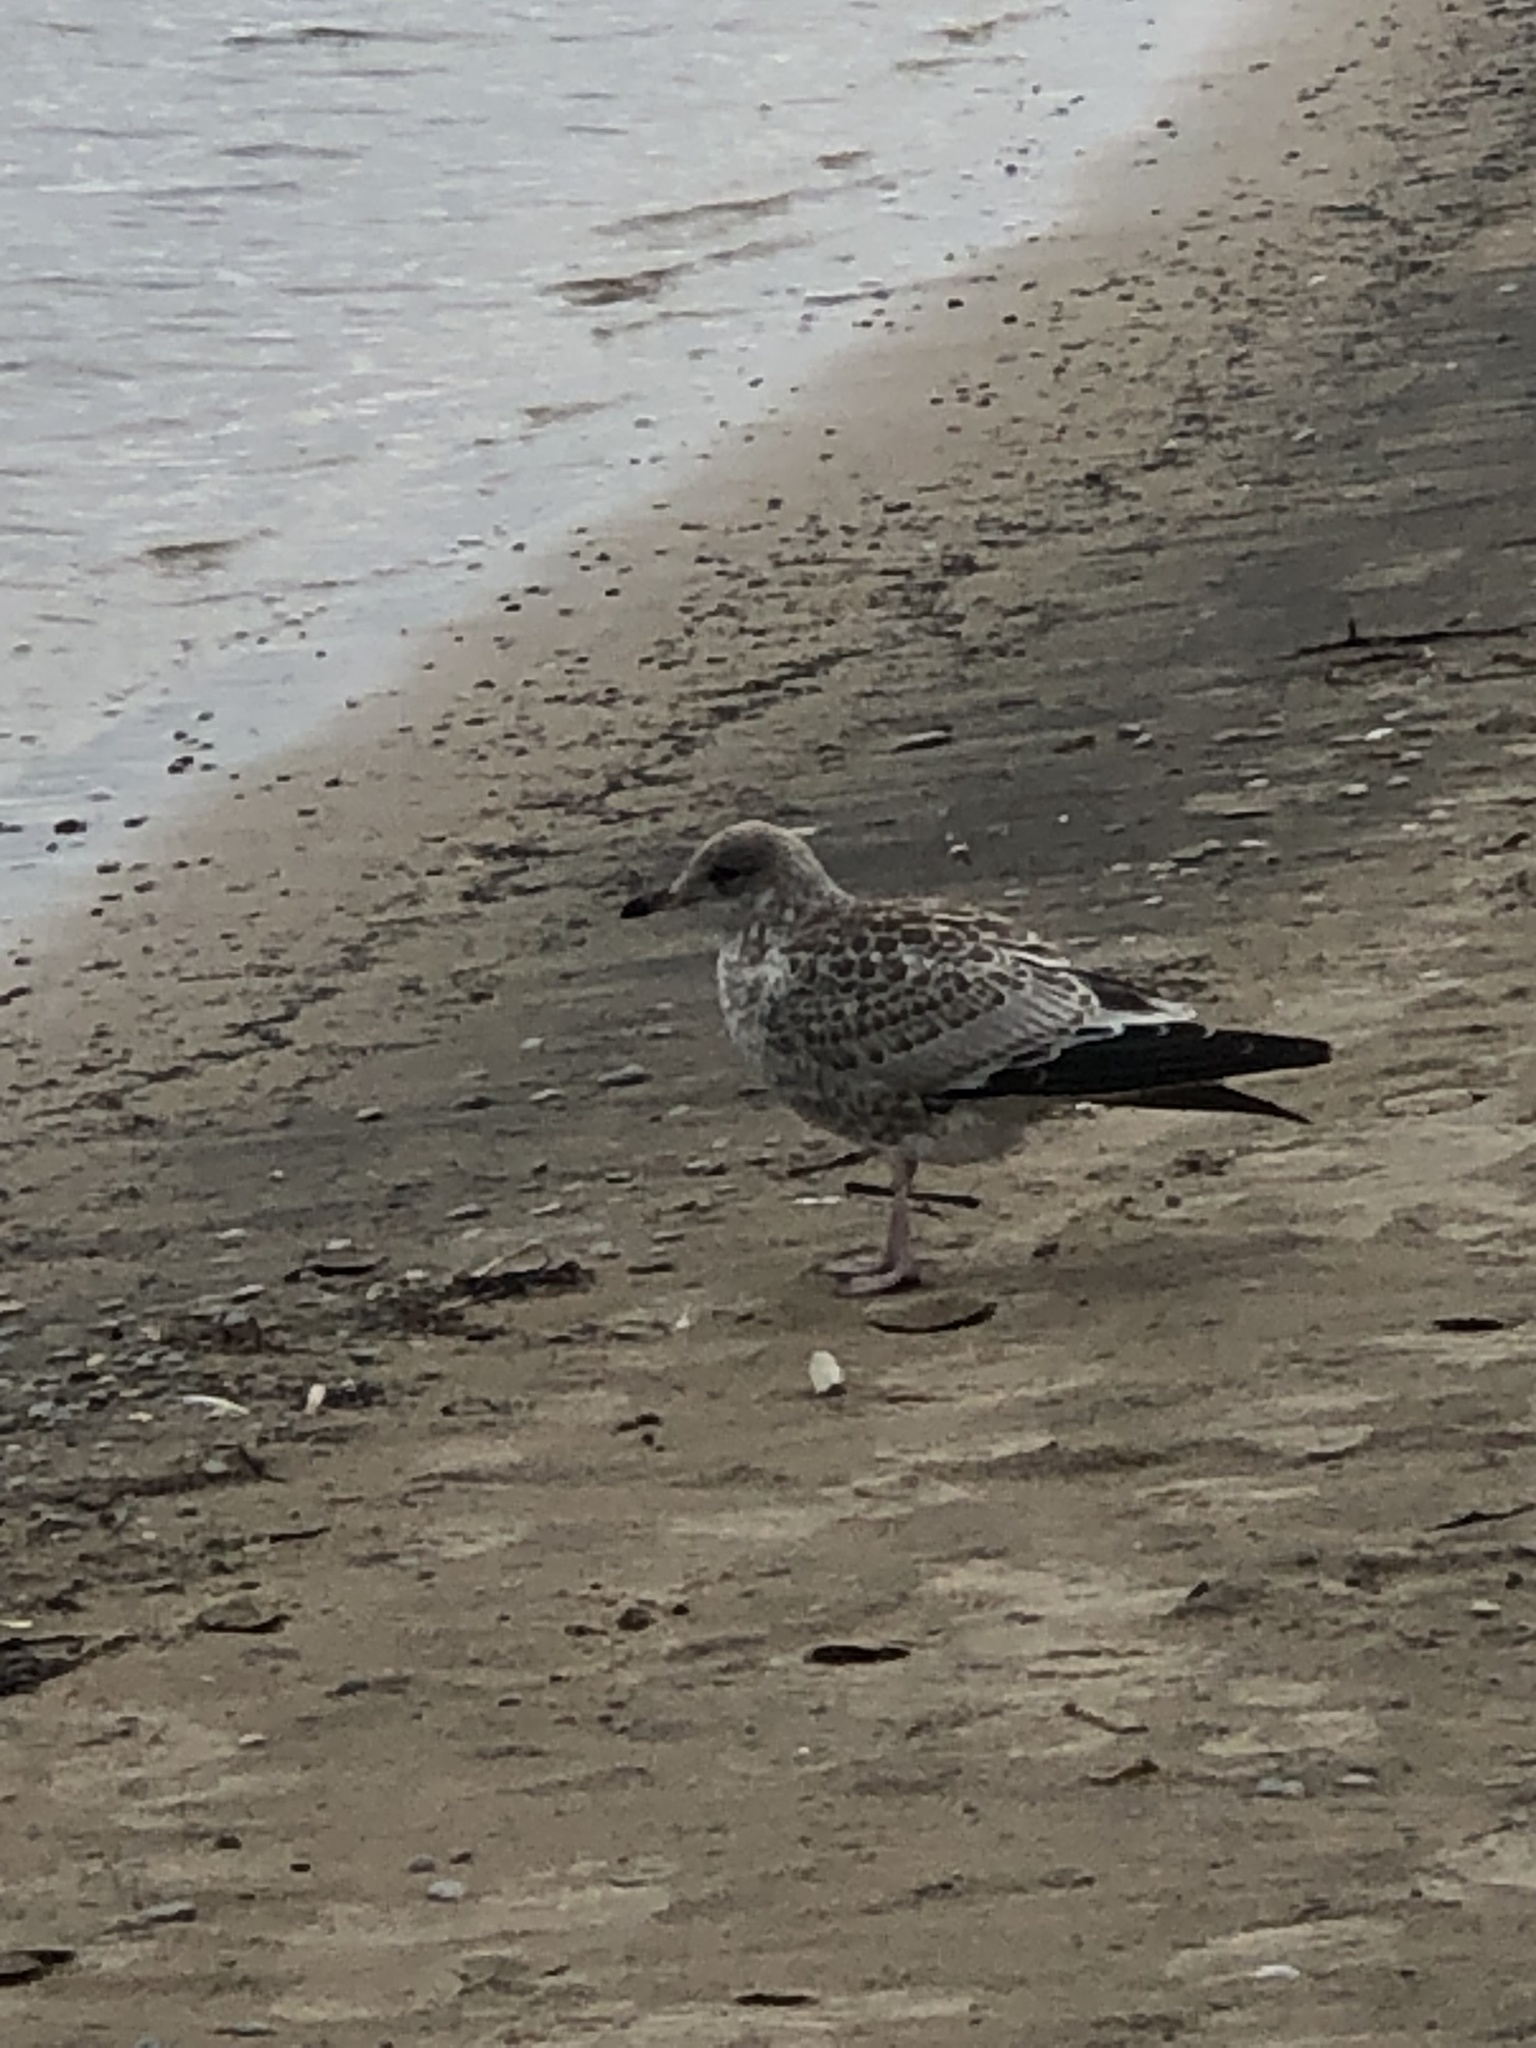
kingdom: Animalia
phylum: Chordata
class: Aves
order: Charadriiformes
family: Laridae
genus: Larus
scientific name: Larus delawarensis
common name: Ring-billed gull
